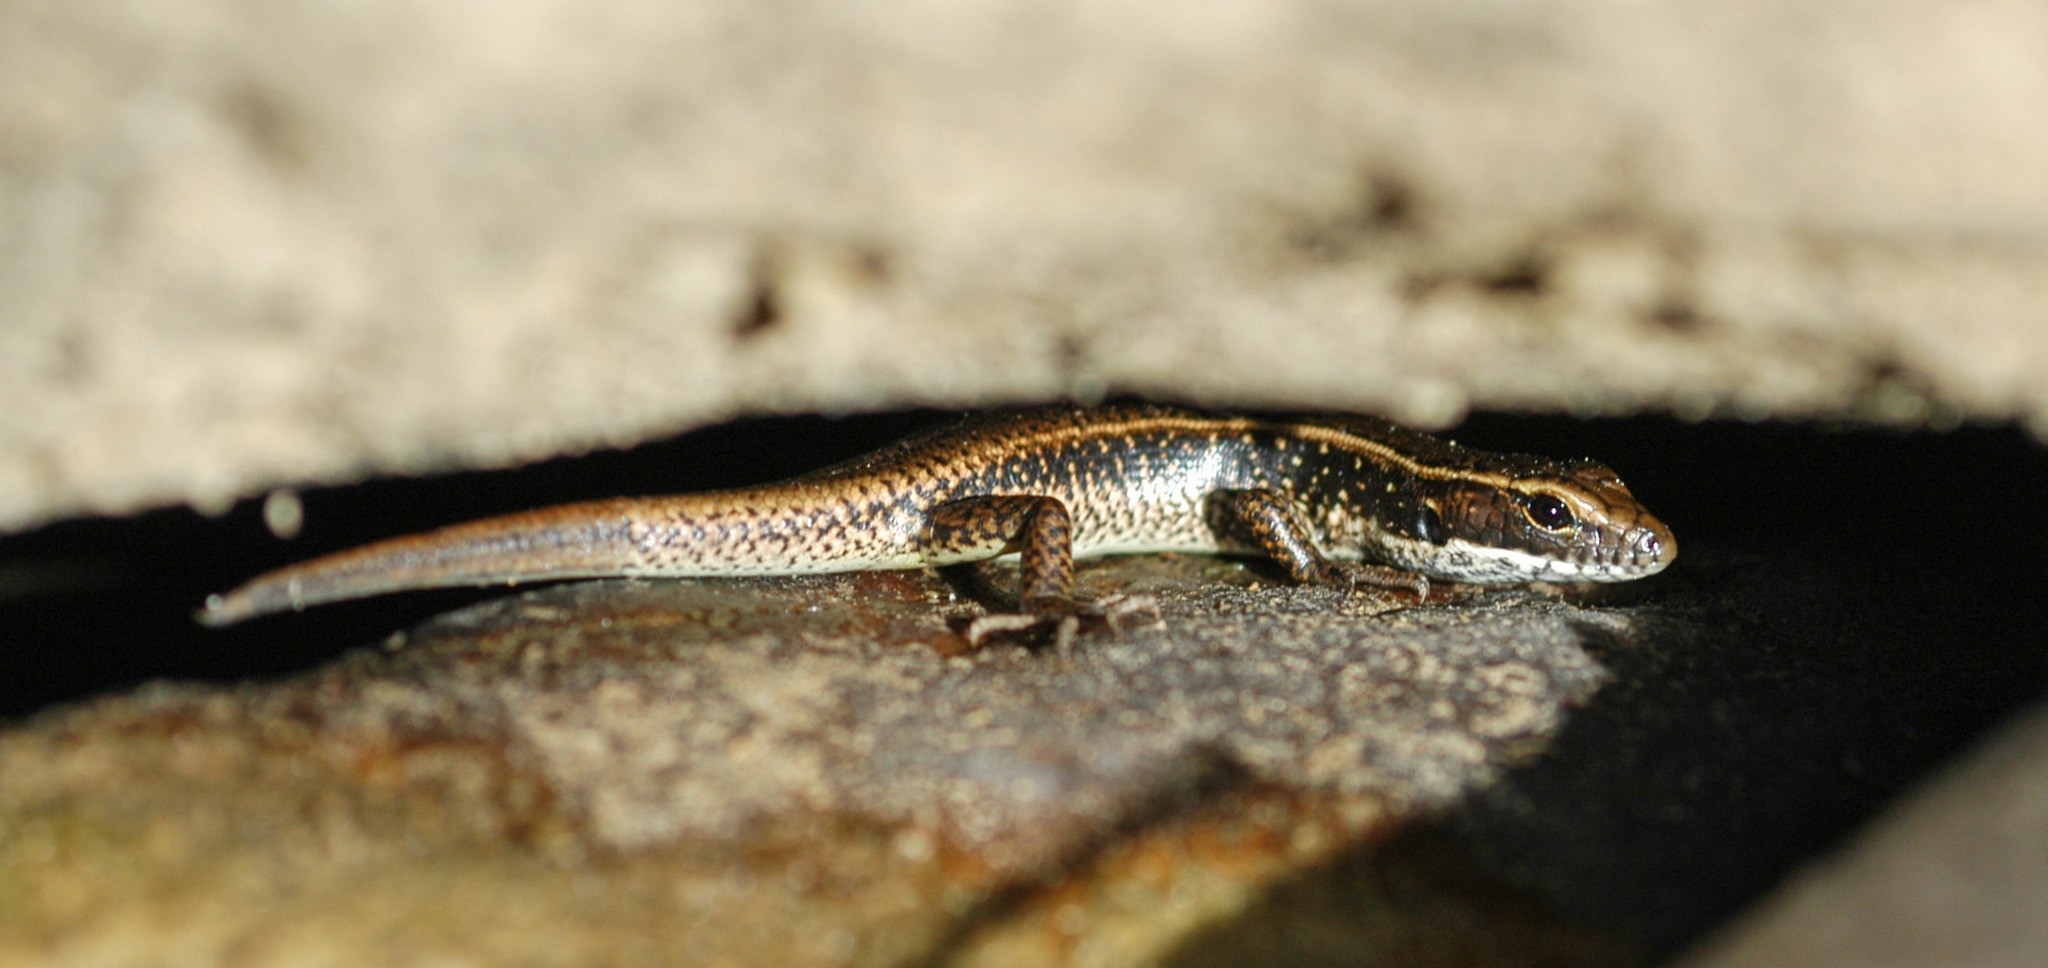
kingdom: Animalia
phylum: Chordata
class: Squamata
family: Scincidae
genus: Eulamprus
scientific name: Eulamprus quoyii
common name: Eastern water skink
